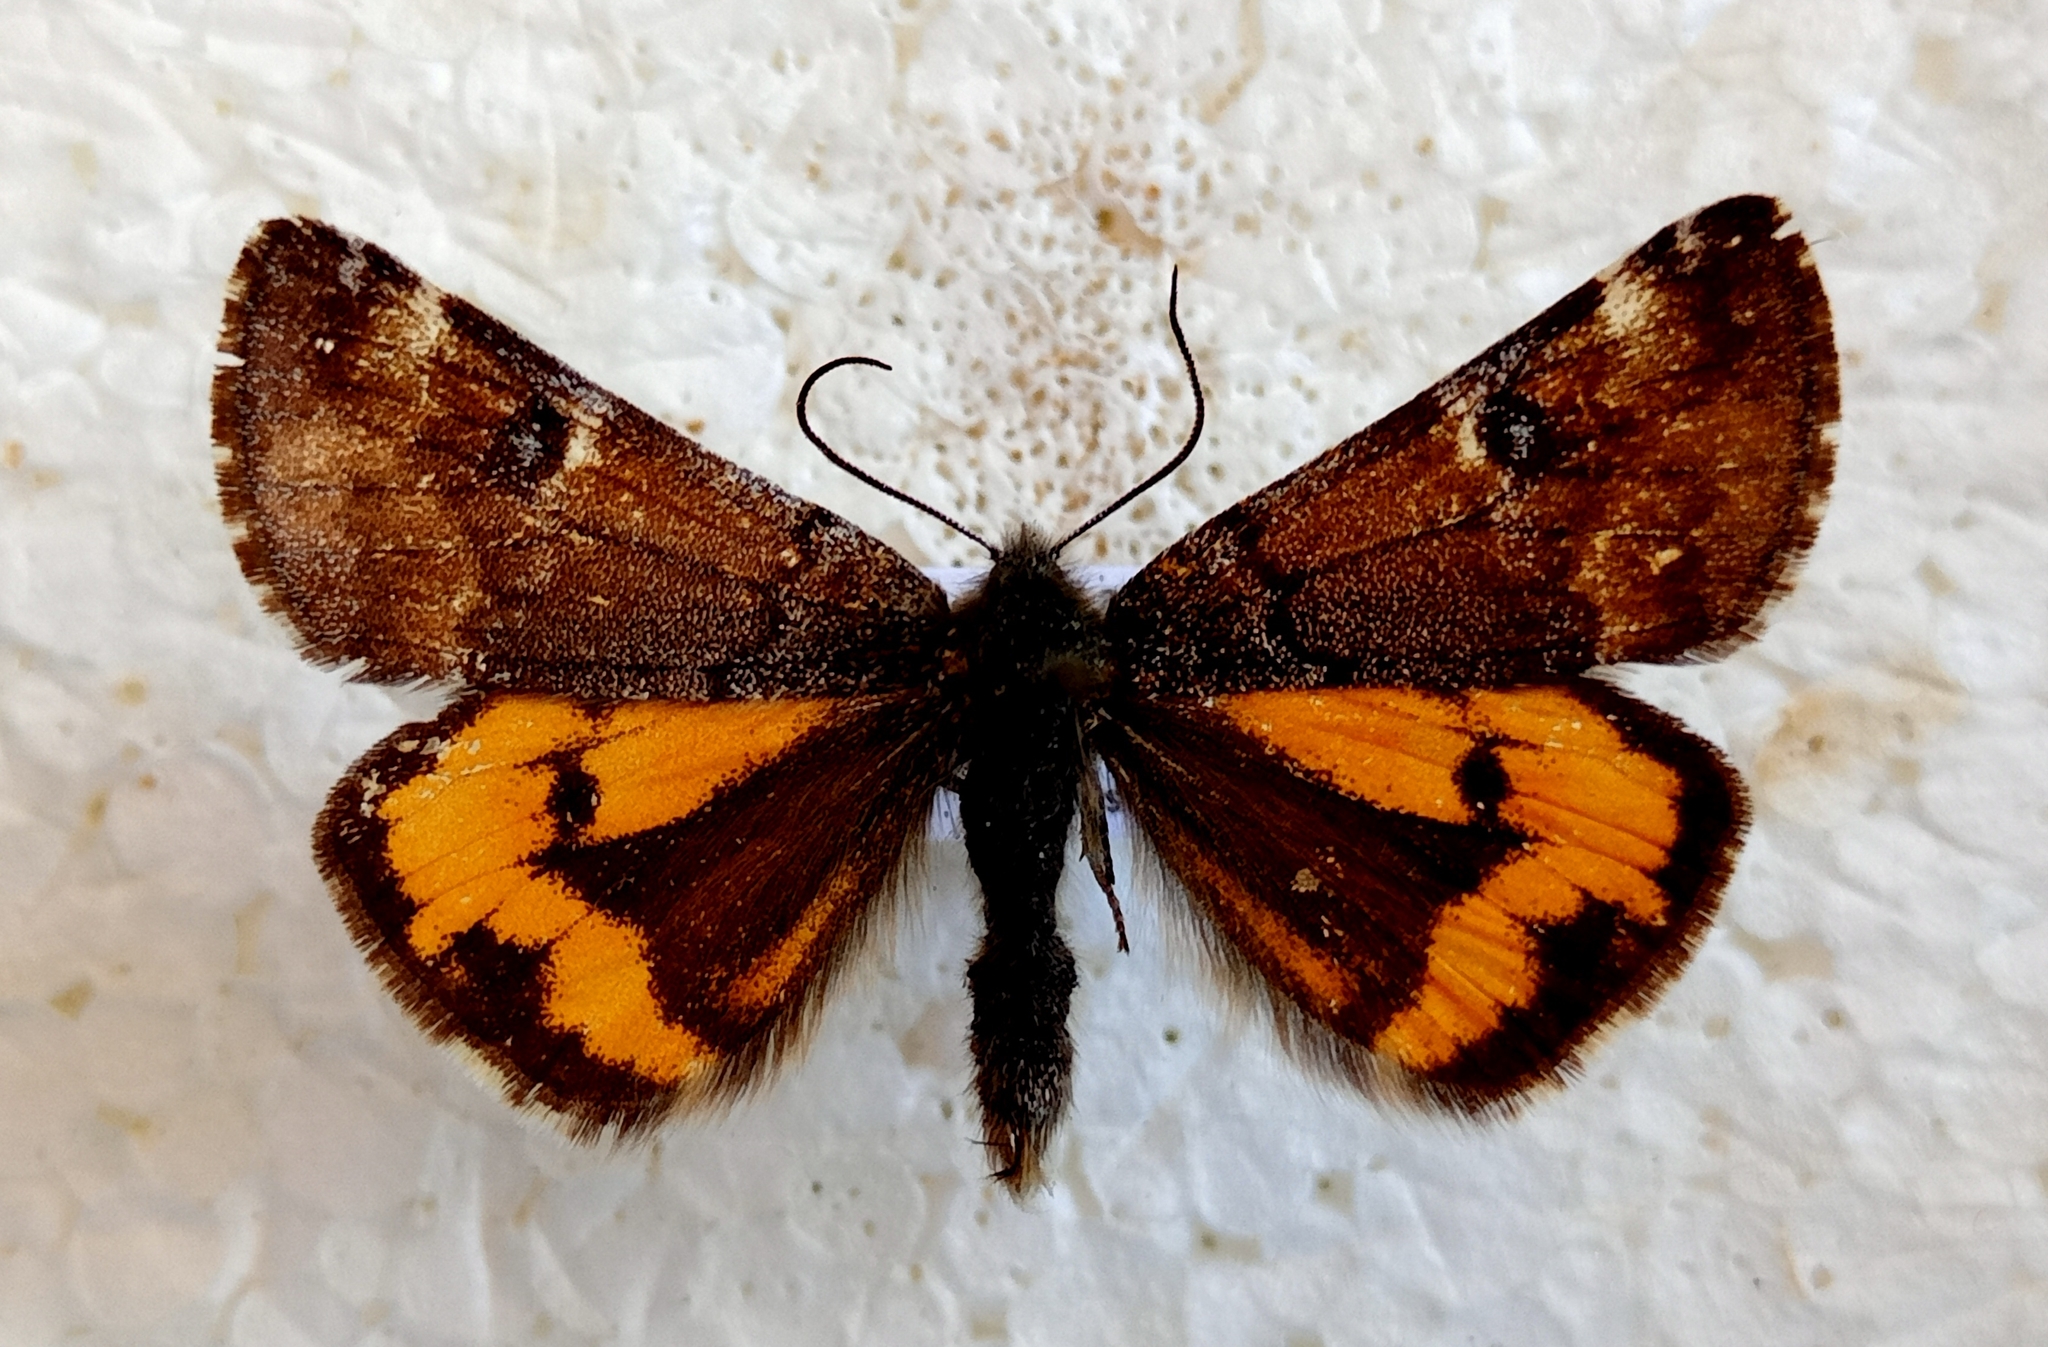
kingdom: Animalia
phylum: Arthropoda
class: Insecta
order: Lepidoptera
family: Geometridae
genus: Archiearis
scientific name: Archiearis parthenias
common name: Orange underwing
